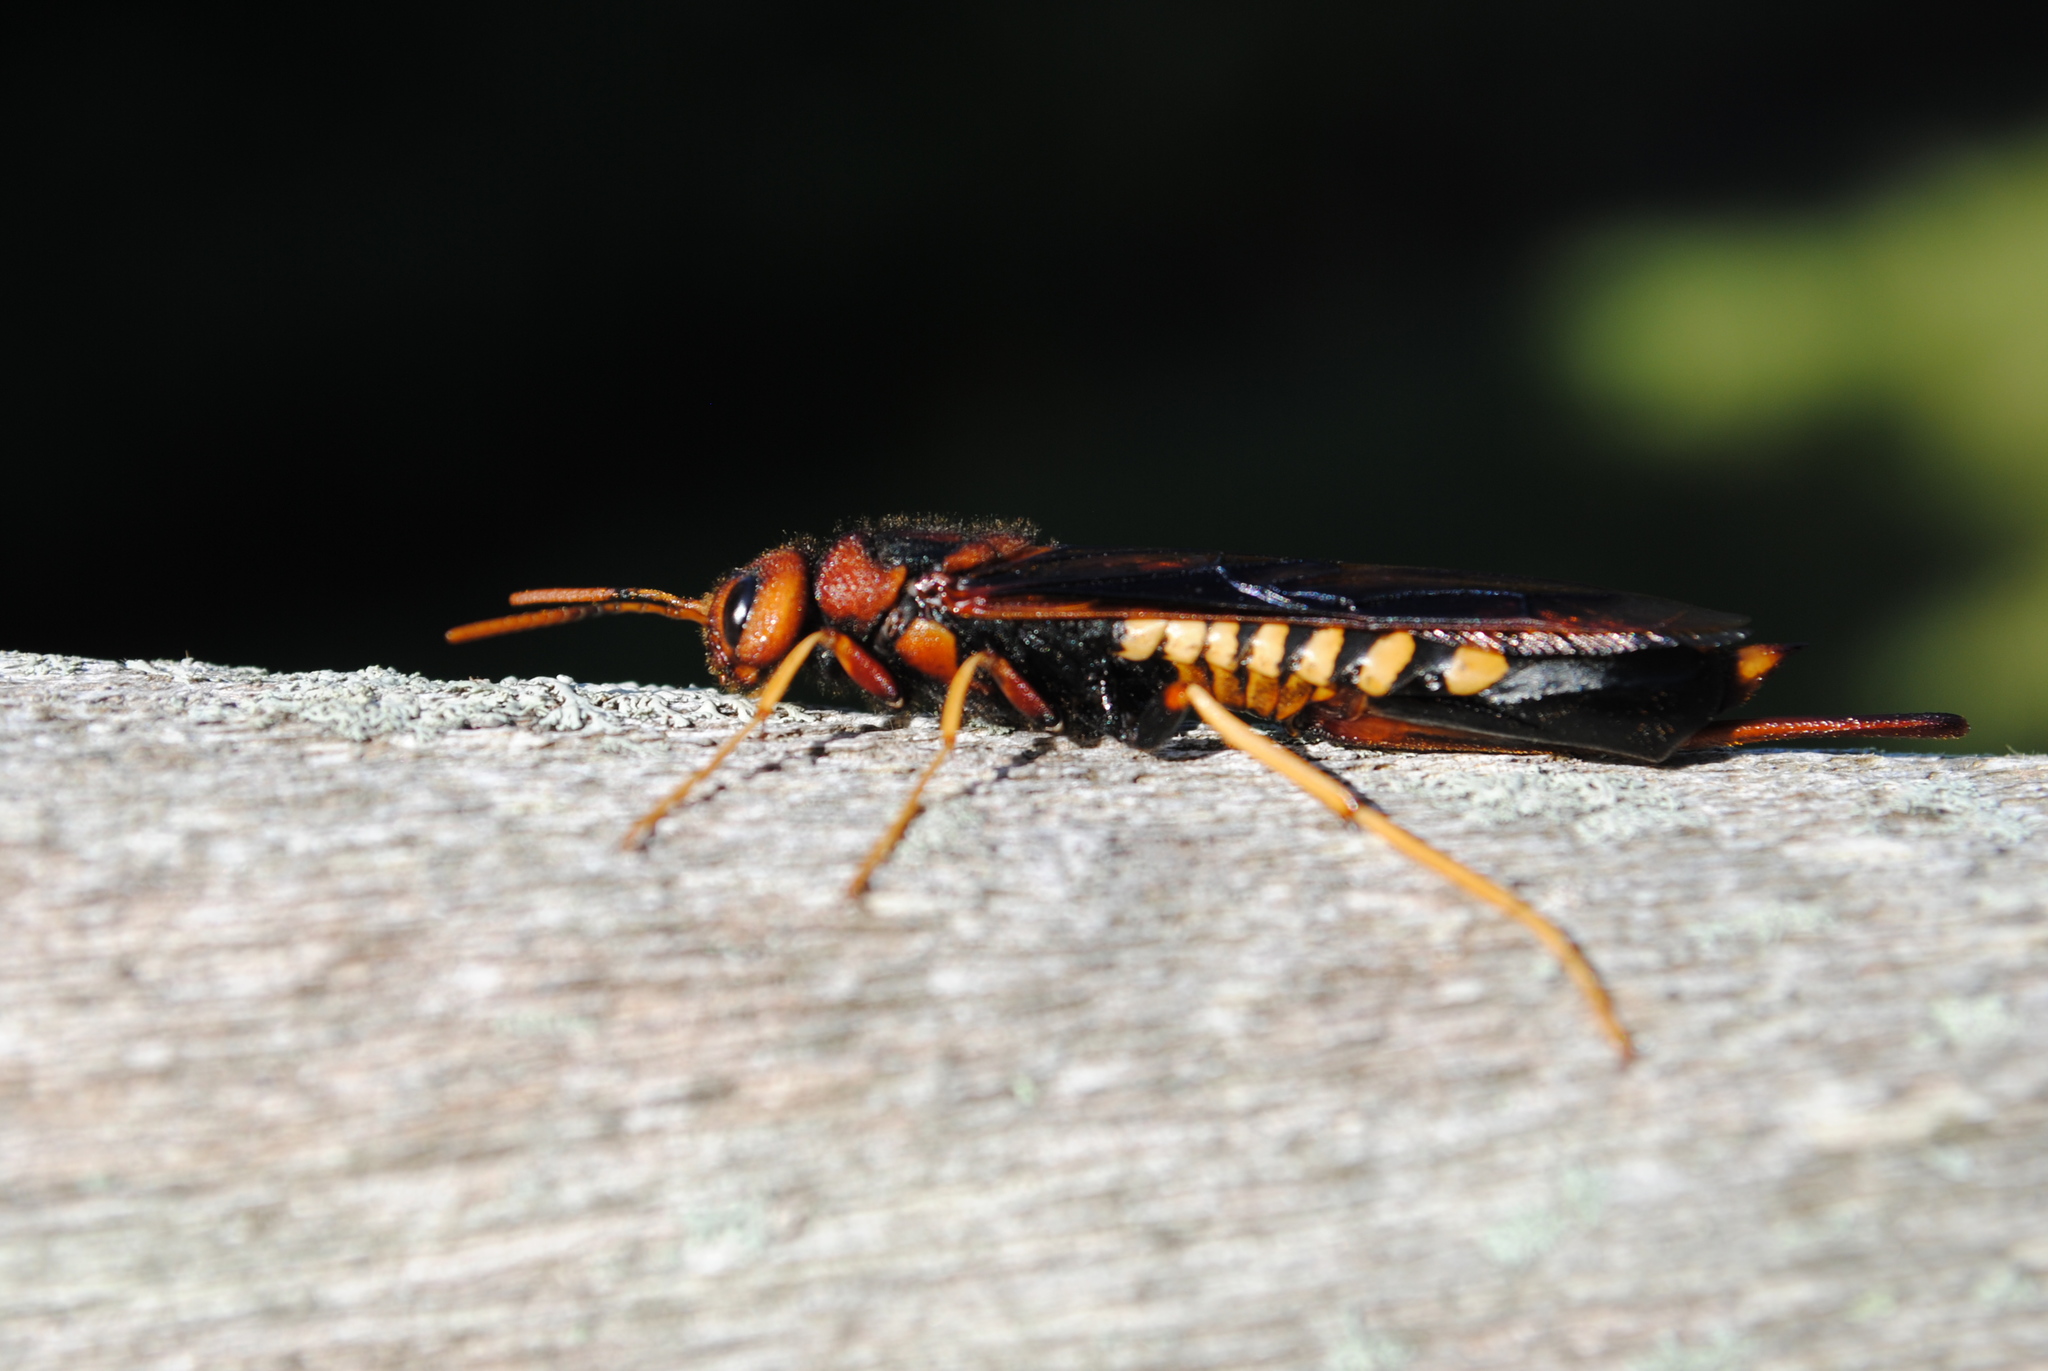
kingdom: Animalia
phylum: Arthropoda
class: Insecta
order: Hymenoptera
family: Siricidae
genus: Tremex
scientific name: Tremex columba
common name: Wasp
